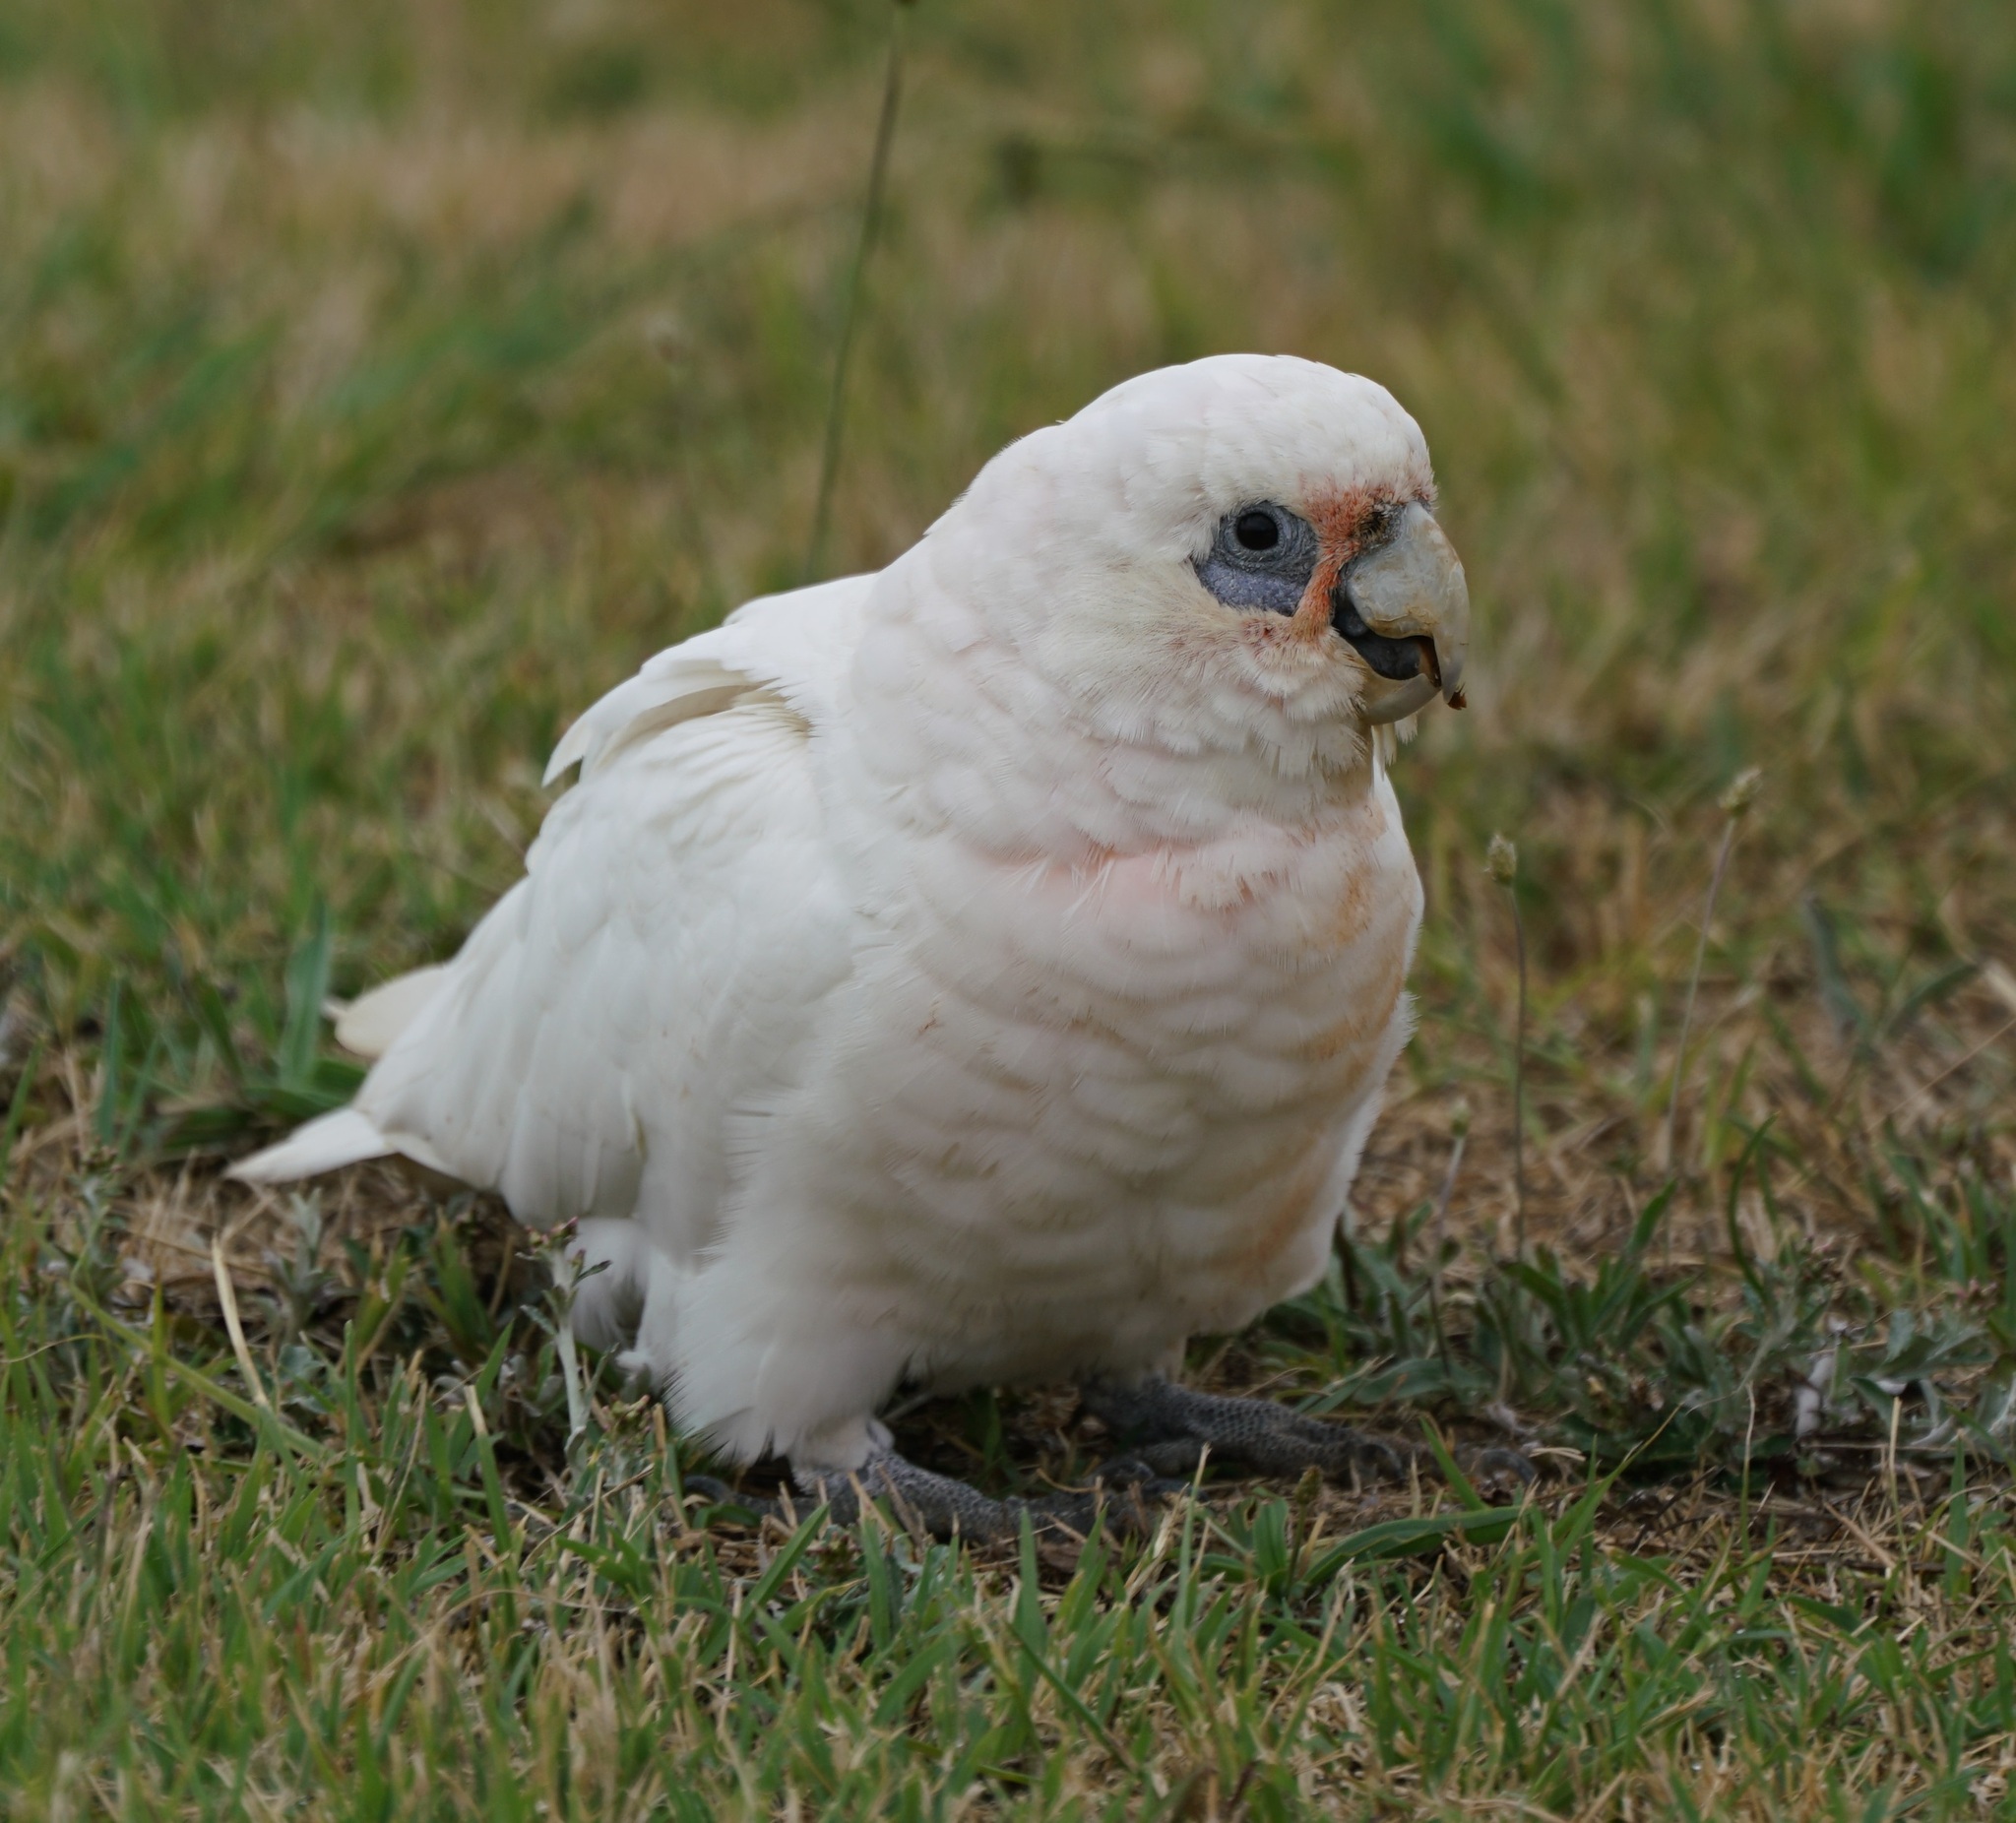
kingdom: Animalia
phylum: Chordata
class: Aves
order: Psittaciformes
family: Psittacidae
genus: Cacatua
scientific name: Cacatua sanguinea
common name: Little corella
